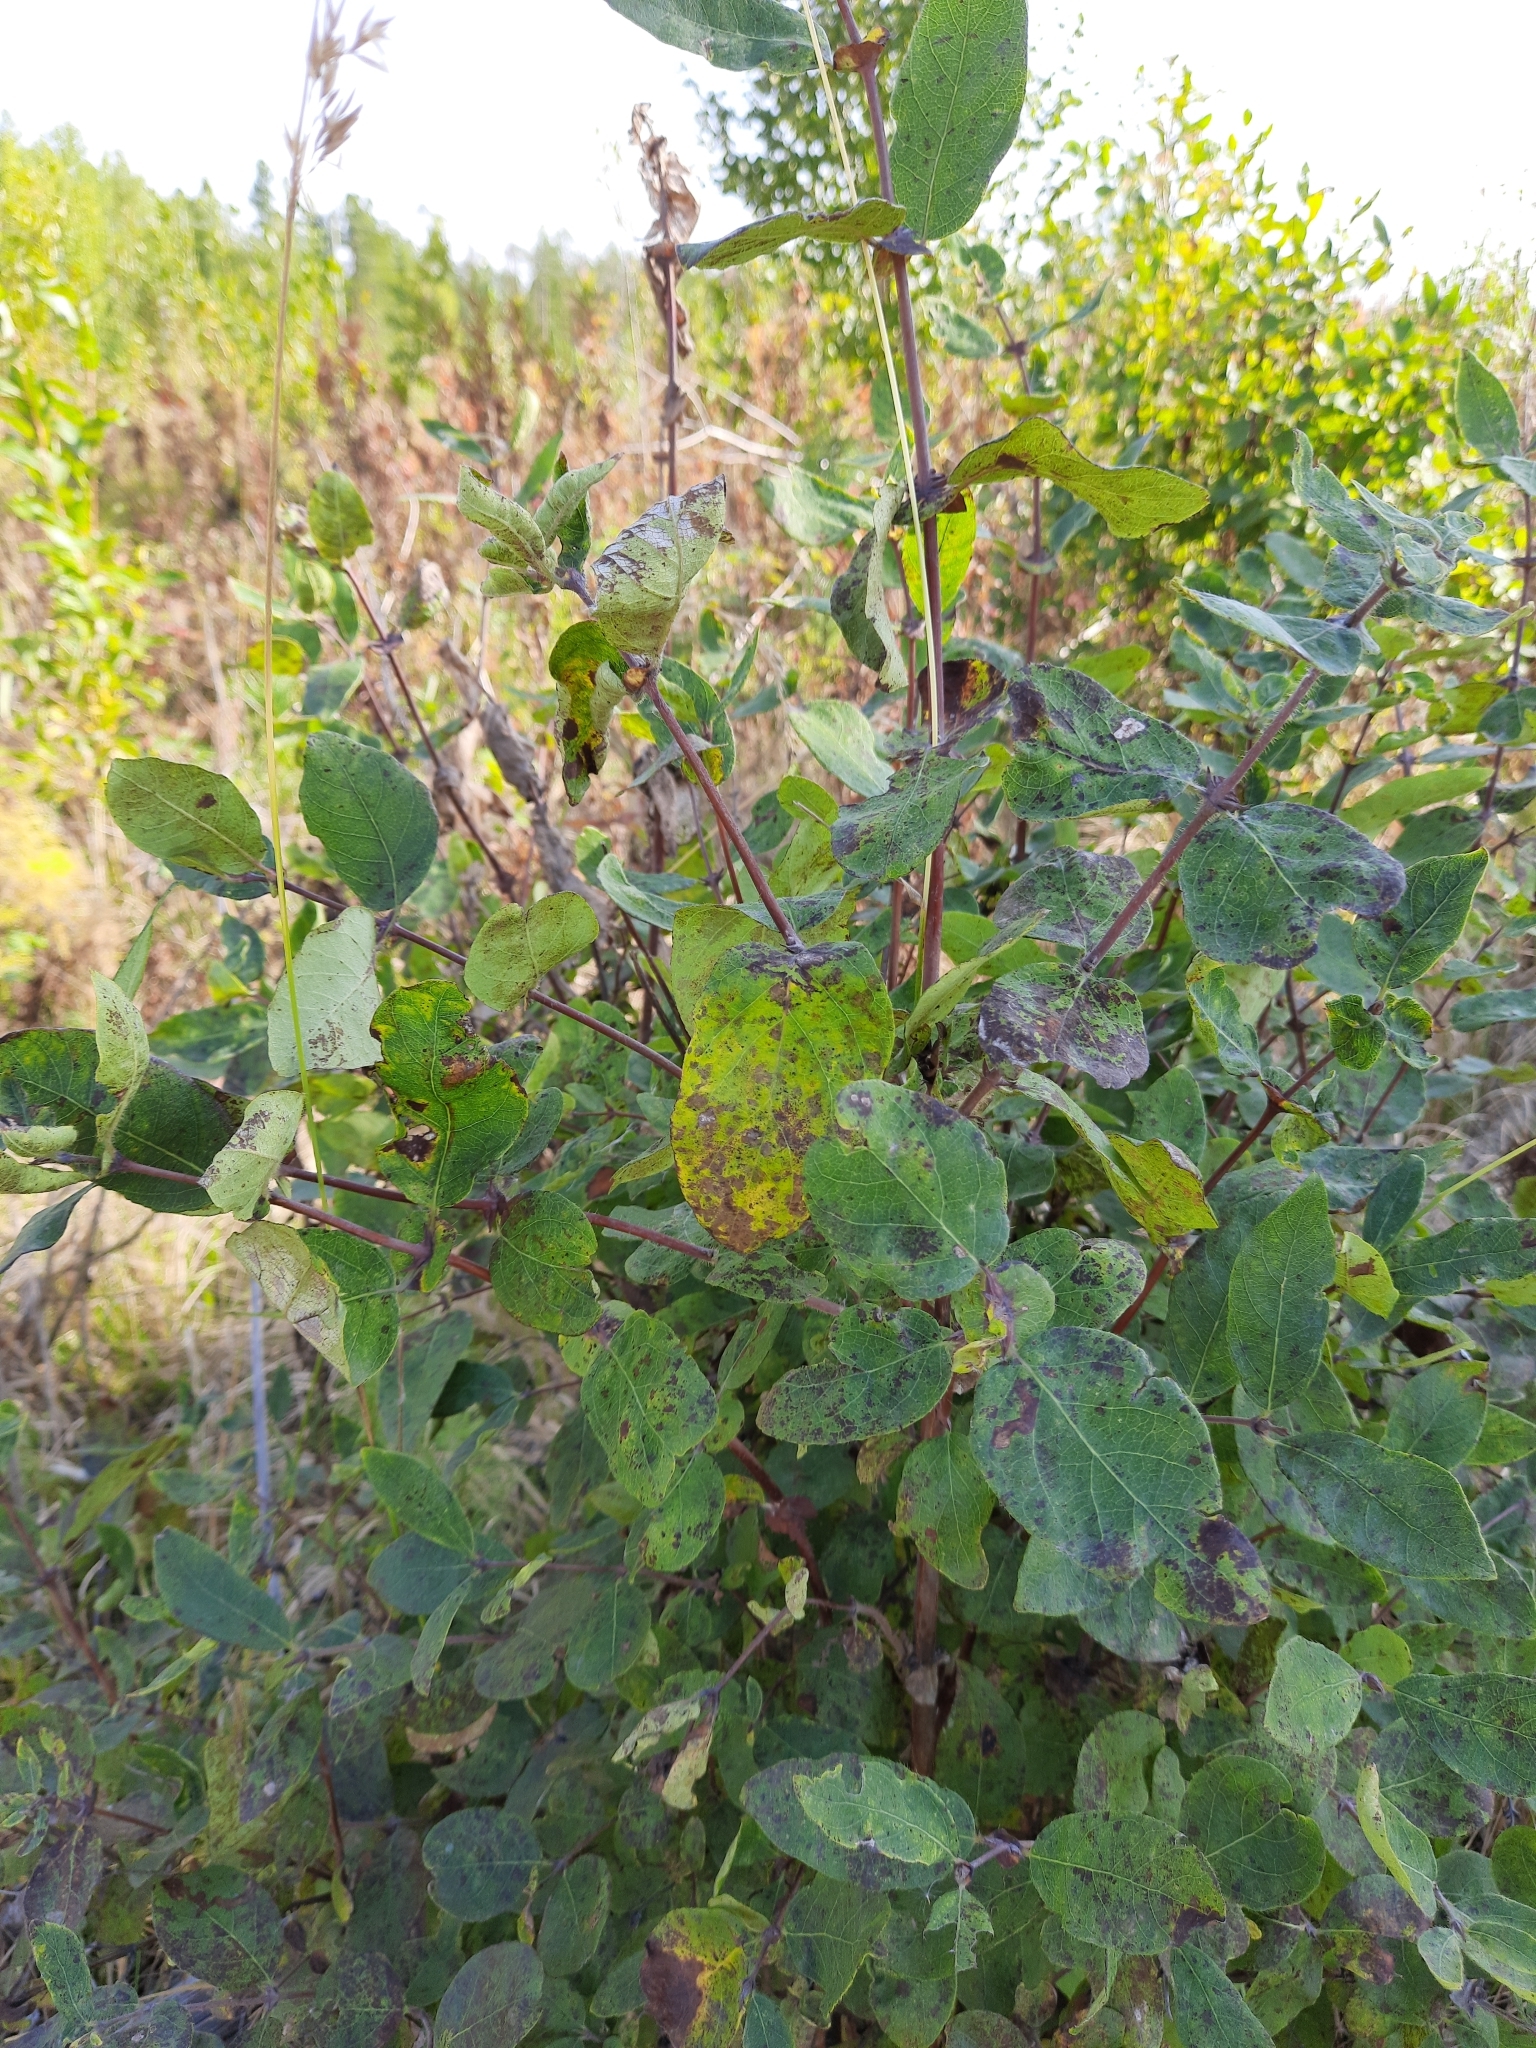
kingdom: Plantae
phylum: Tracheophyta
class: Magnoliopsida
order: Dipsacales
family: Caprifoliaceae
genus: Lonicera
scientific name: Lonicera caerulea
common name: Blue honeysuckle
